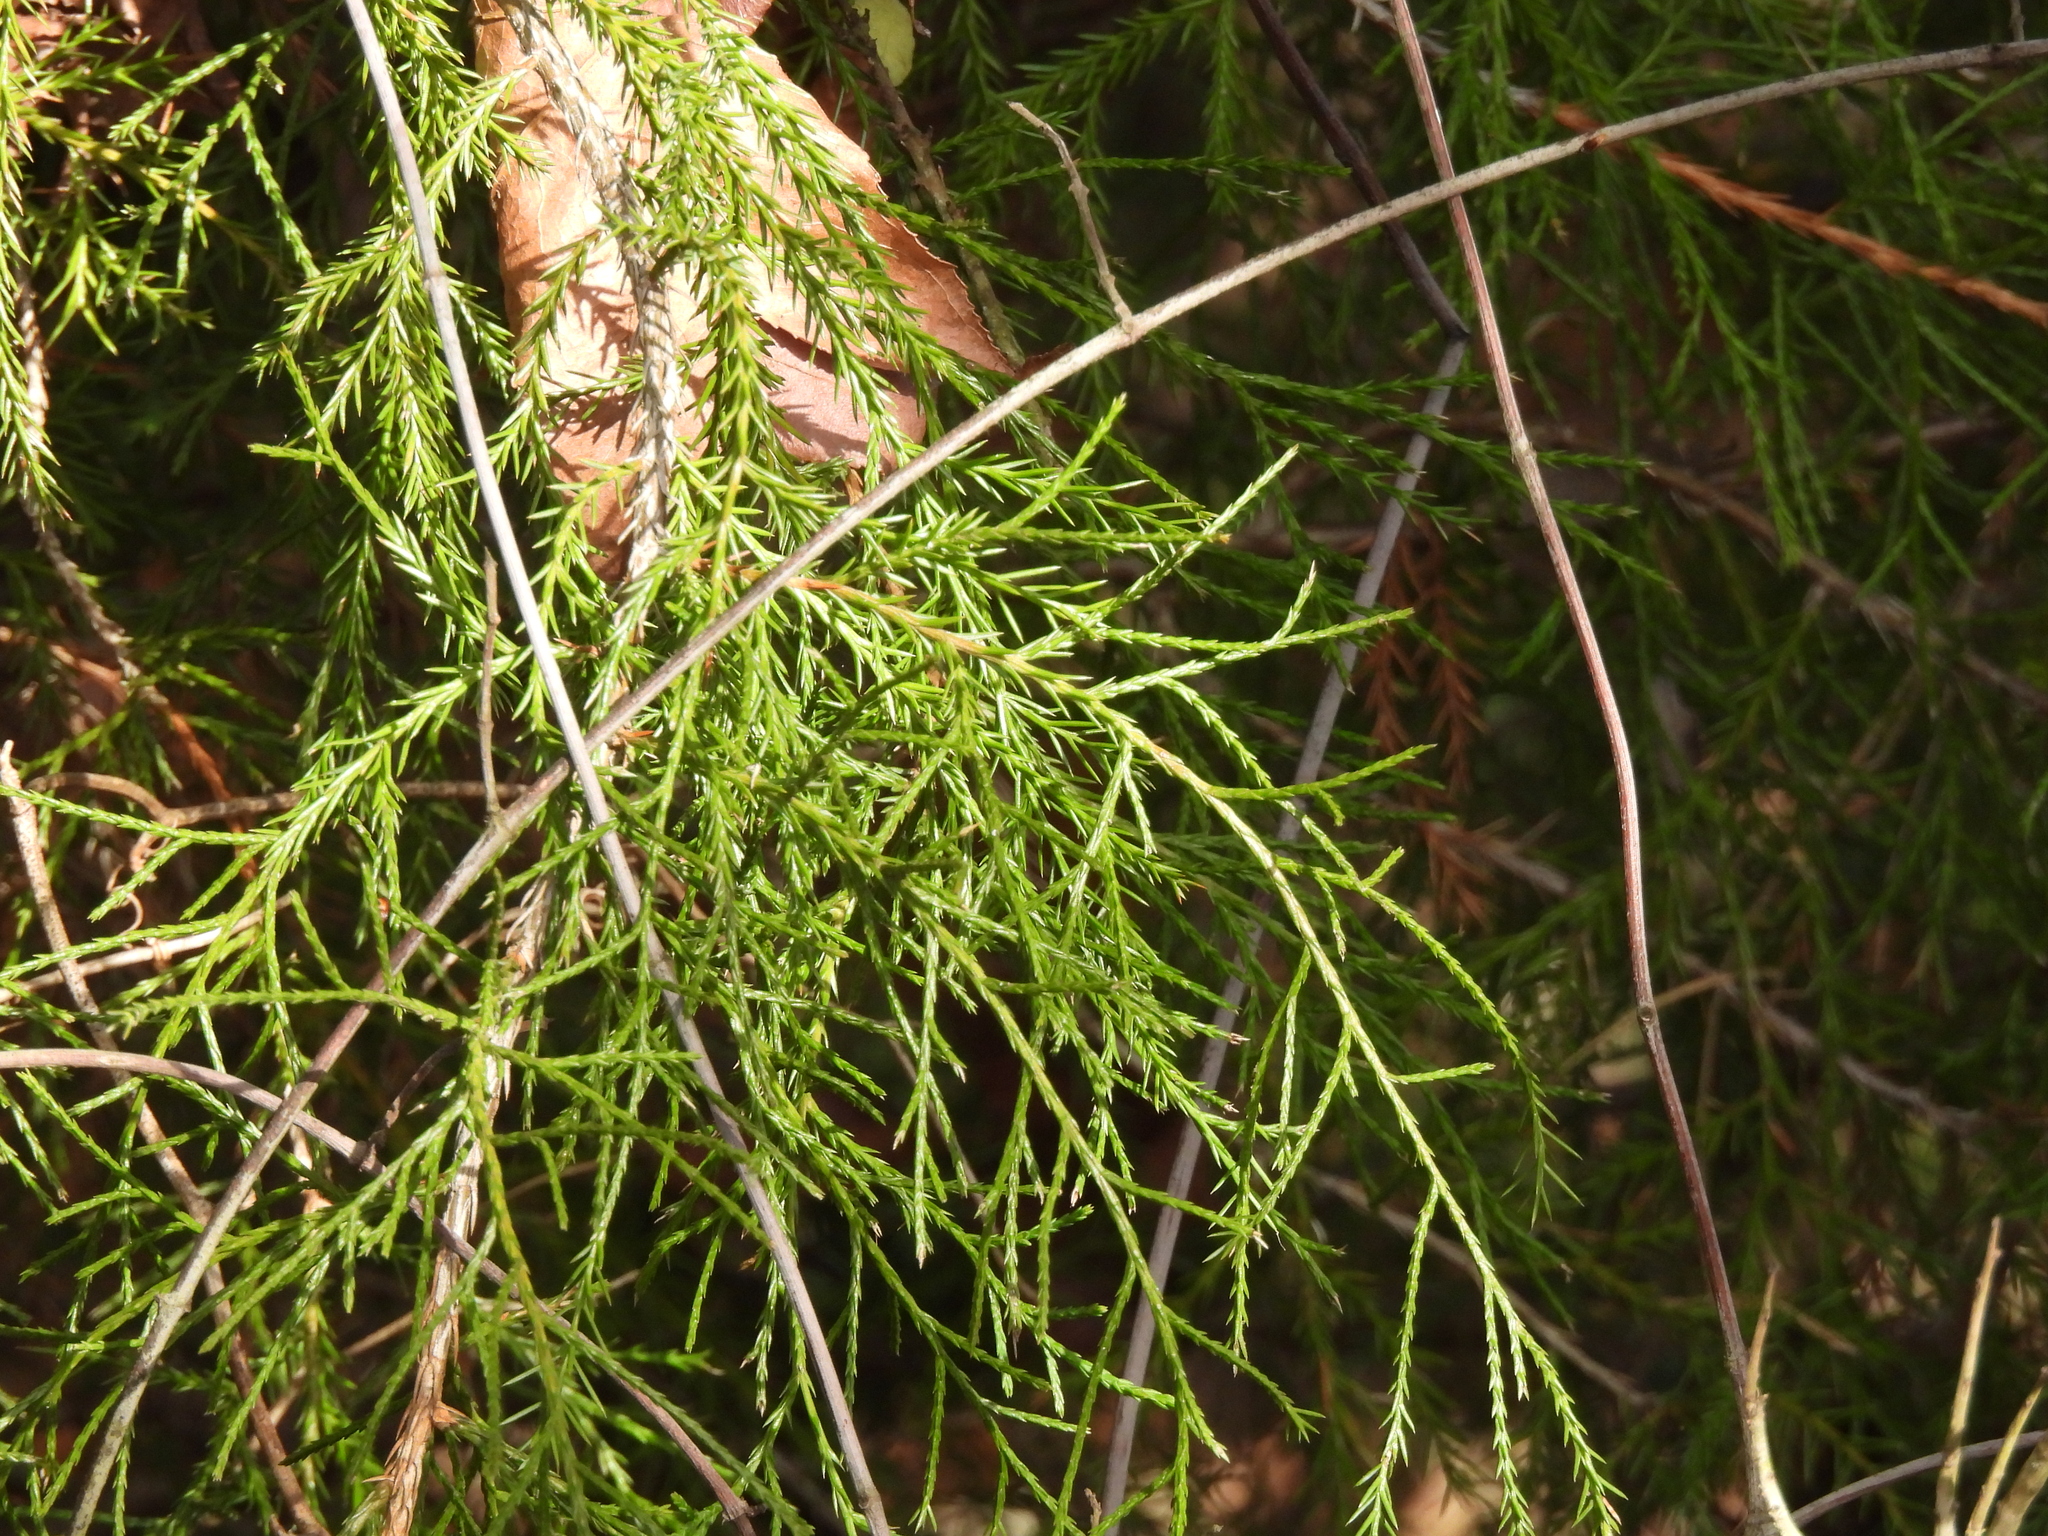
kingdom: Plantae
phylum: Tracheophyta
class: Pinopsida
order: Pinales
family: Cupressaceae
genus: Juniperus
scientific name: Juniperus virginiana
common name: Red juniper
